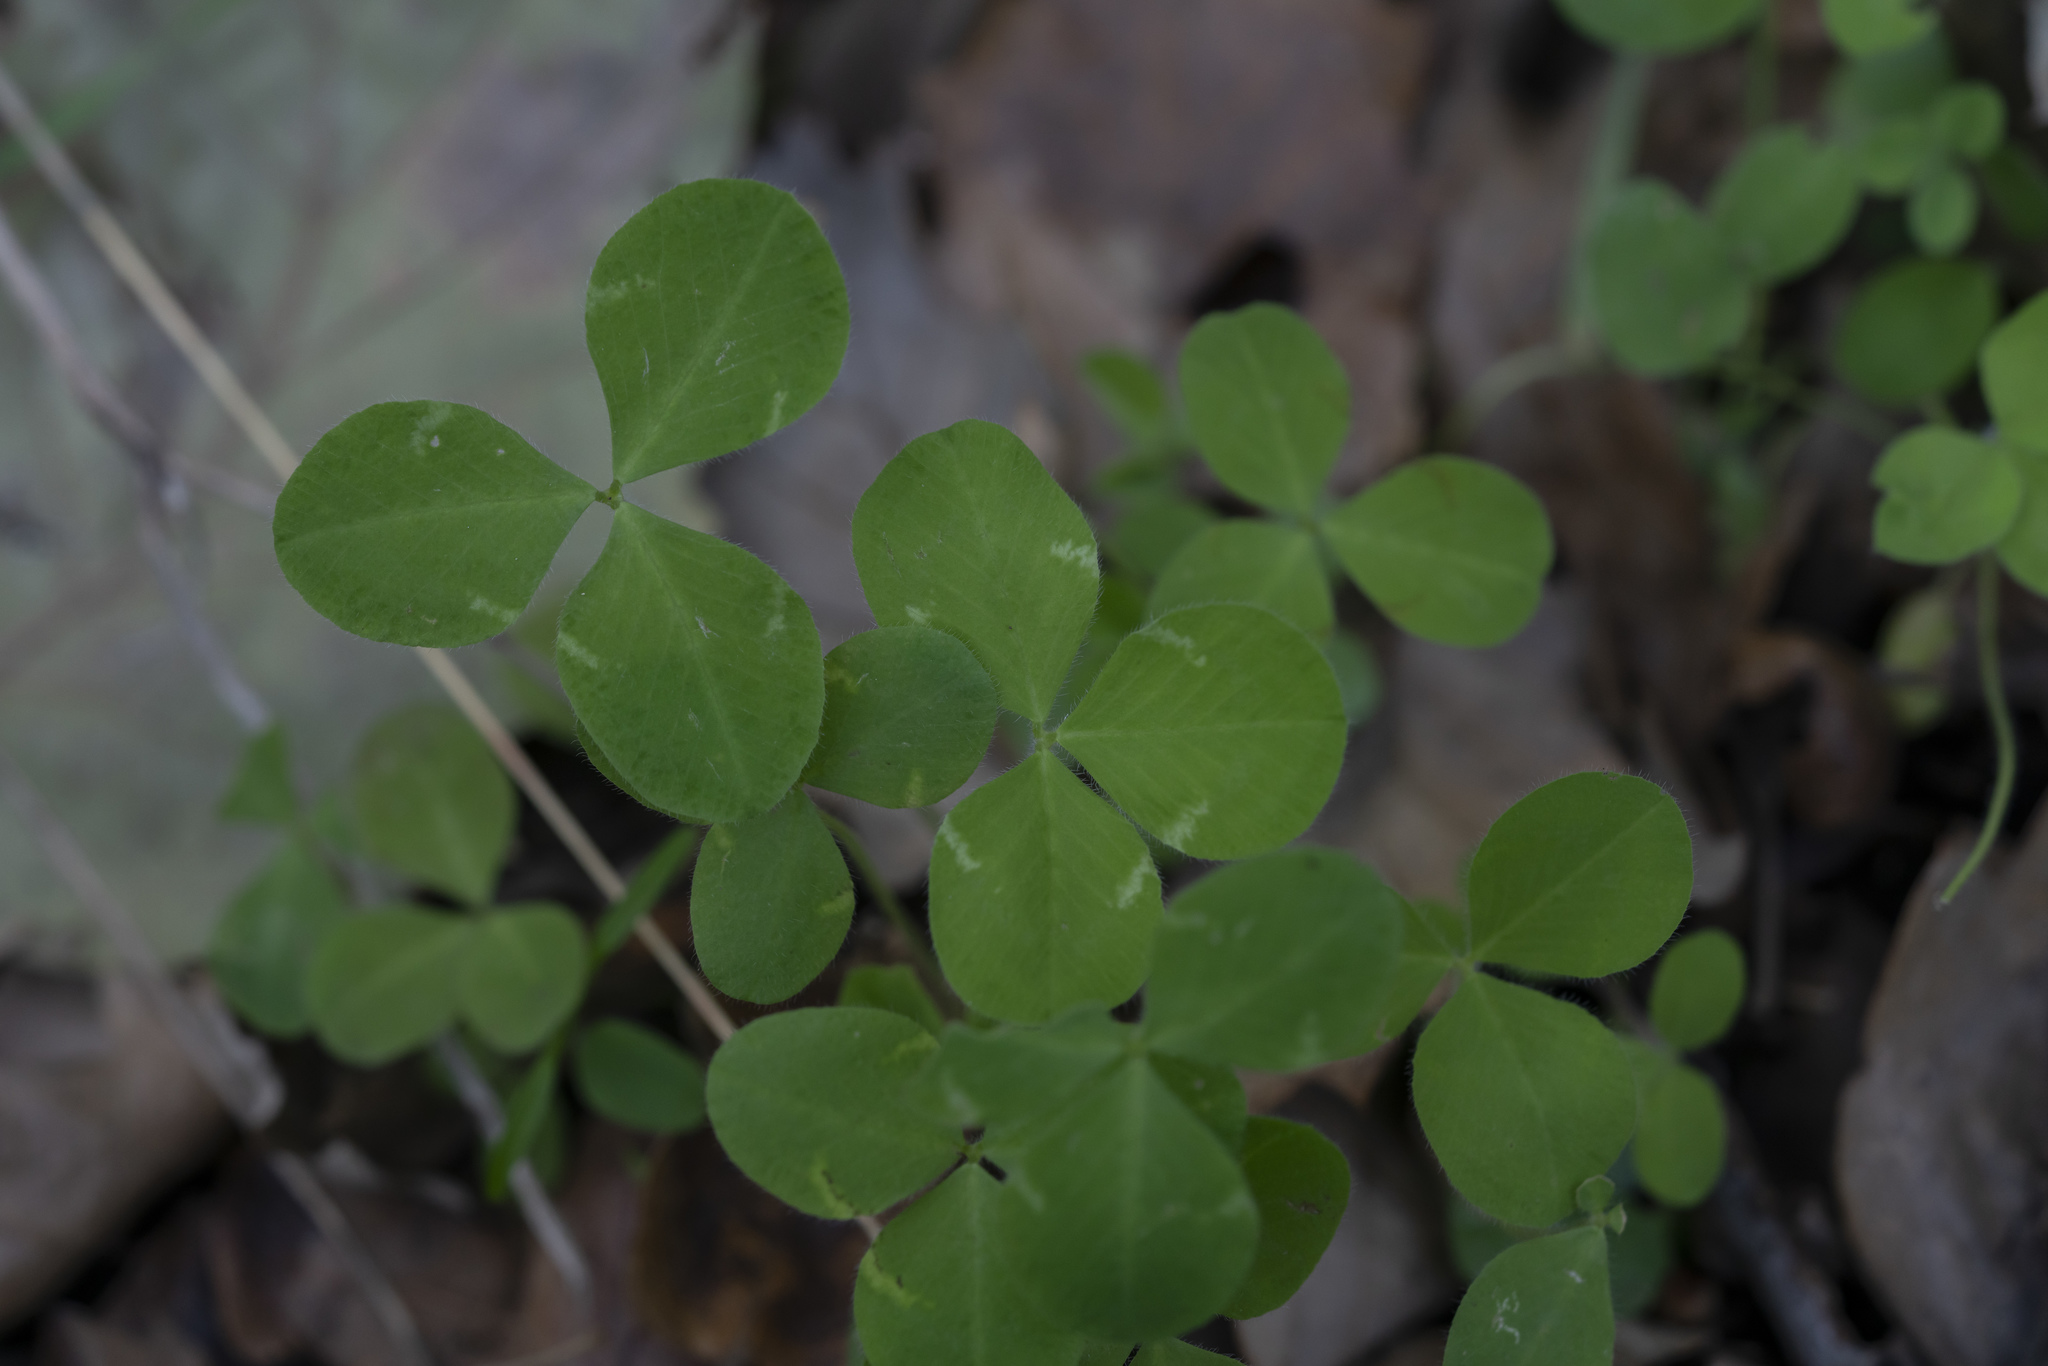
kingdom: Plantae
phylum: Tracheophyta
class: Magnoliopsida
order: Fabales
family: Fabaceae
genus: Trifolium
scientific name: Trifolium
